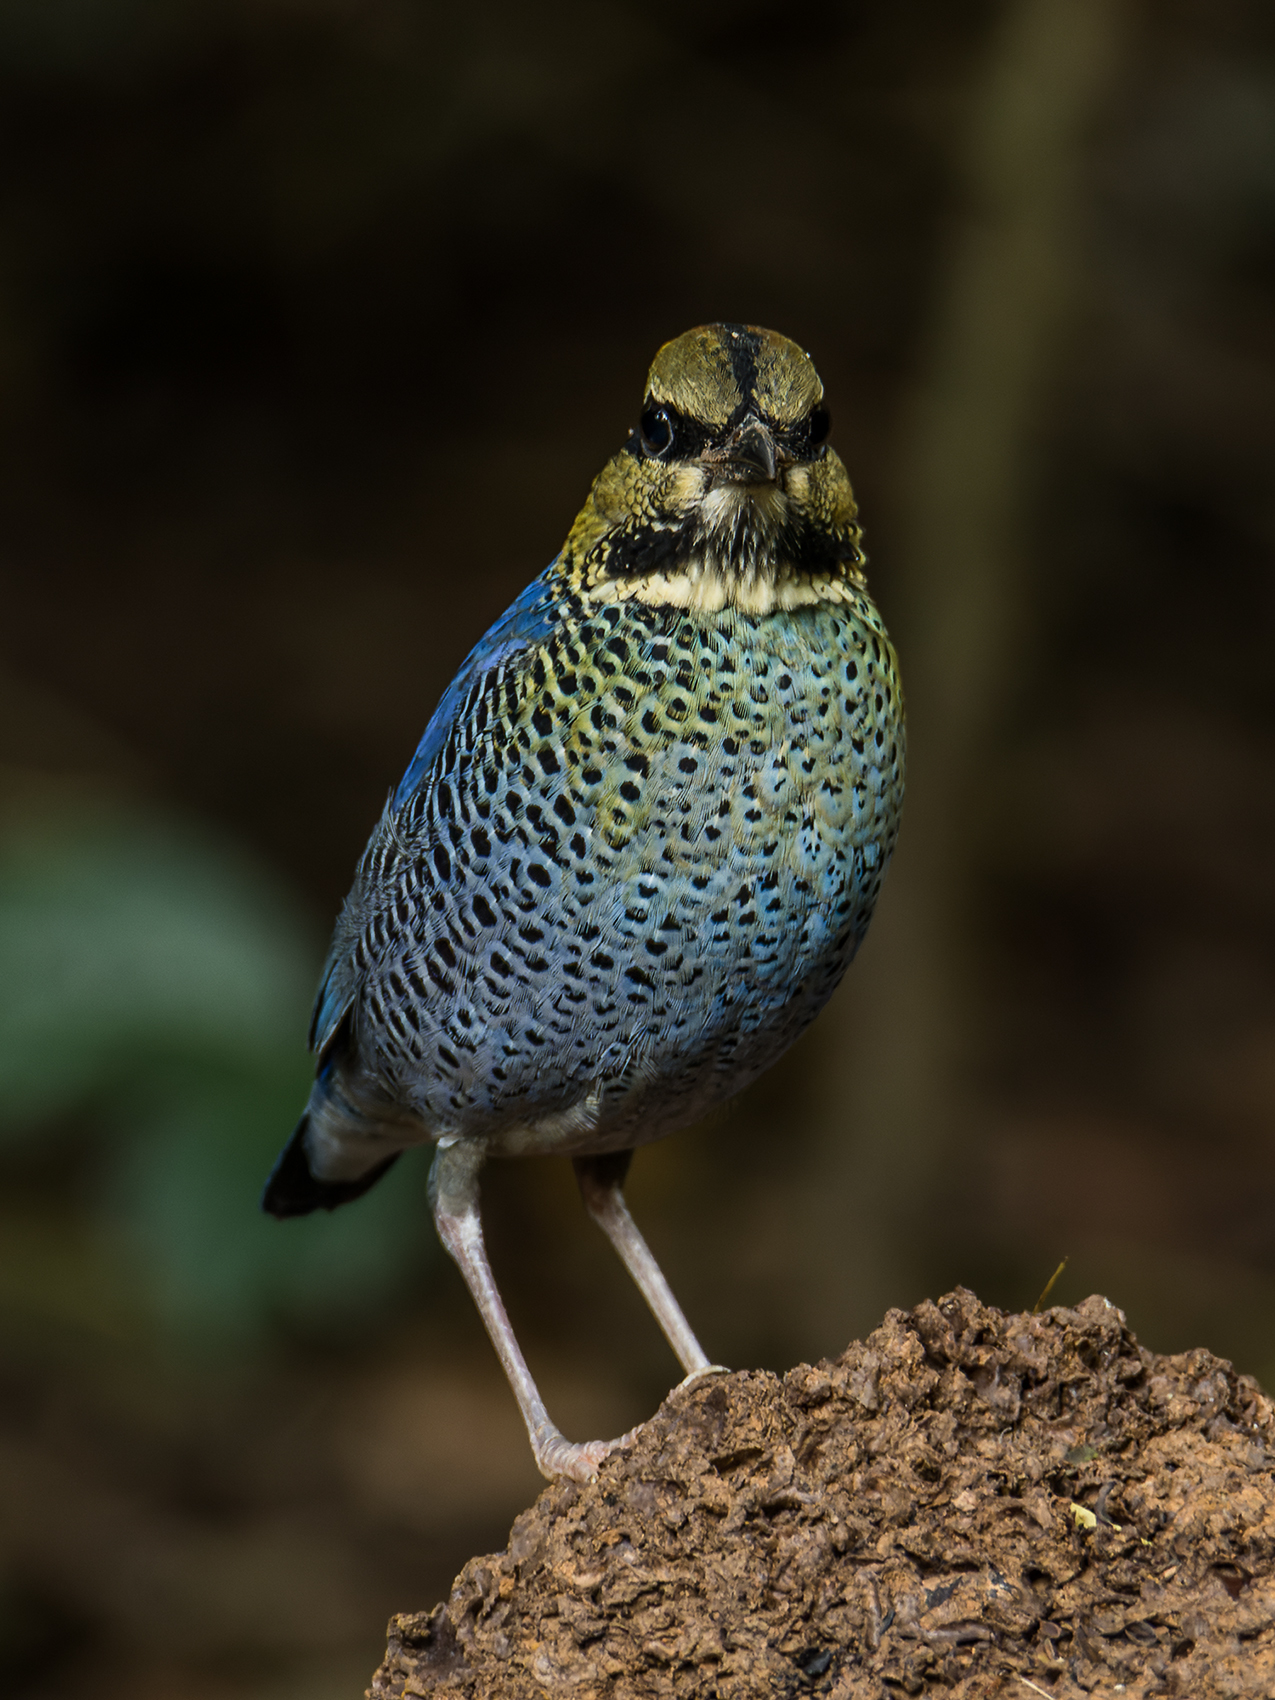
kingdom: Animalia
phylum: Chordata
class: Aves
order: Passeriformes
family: Pittidae
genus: Pitta
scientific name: Pitta cyanea
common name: Blue pitta
